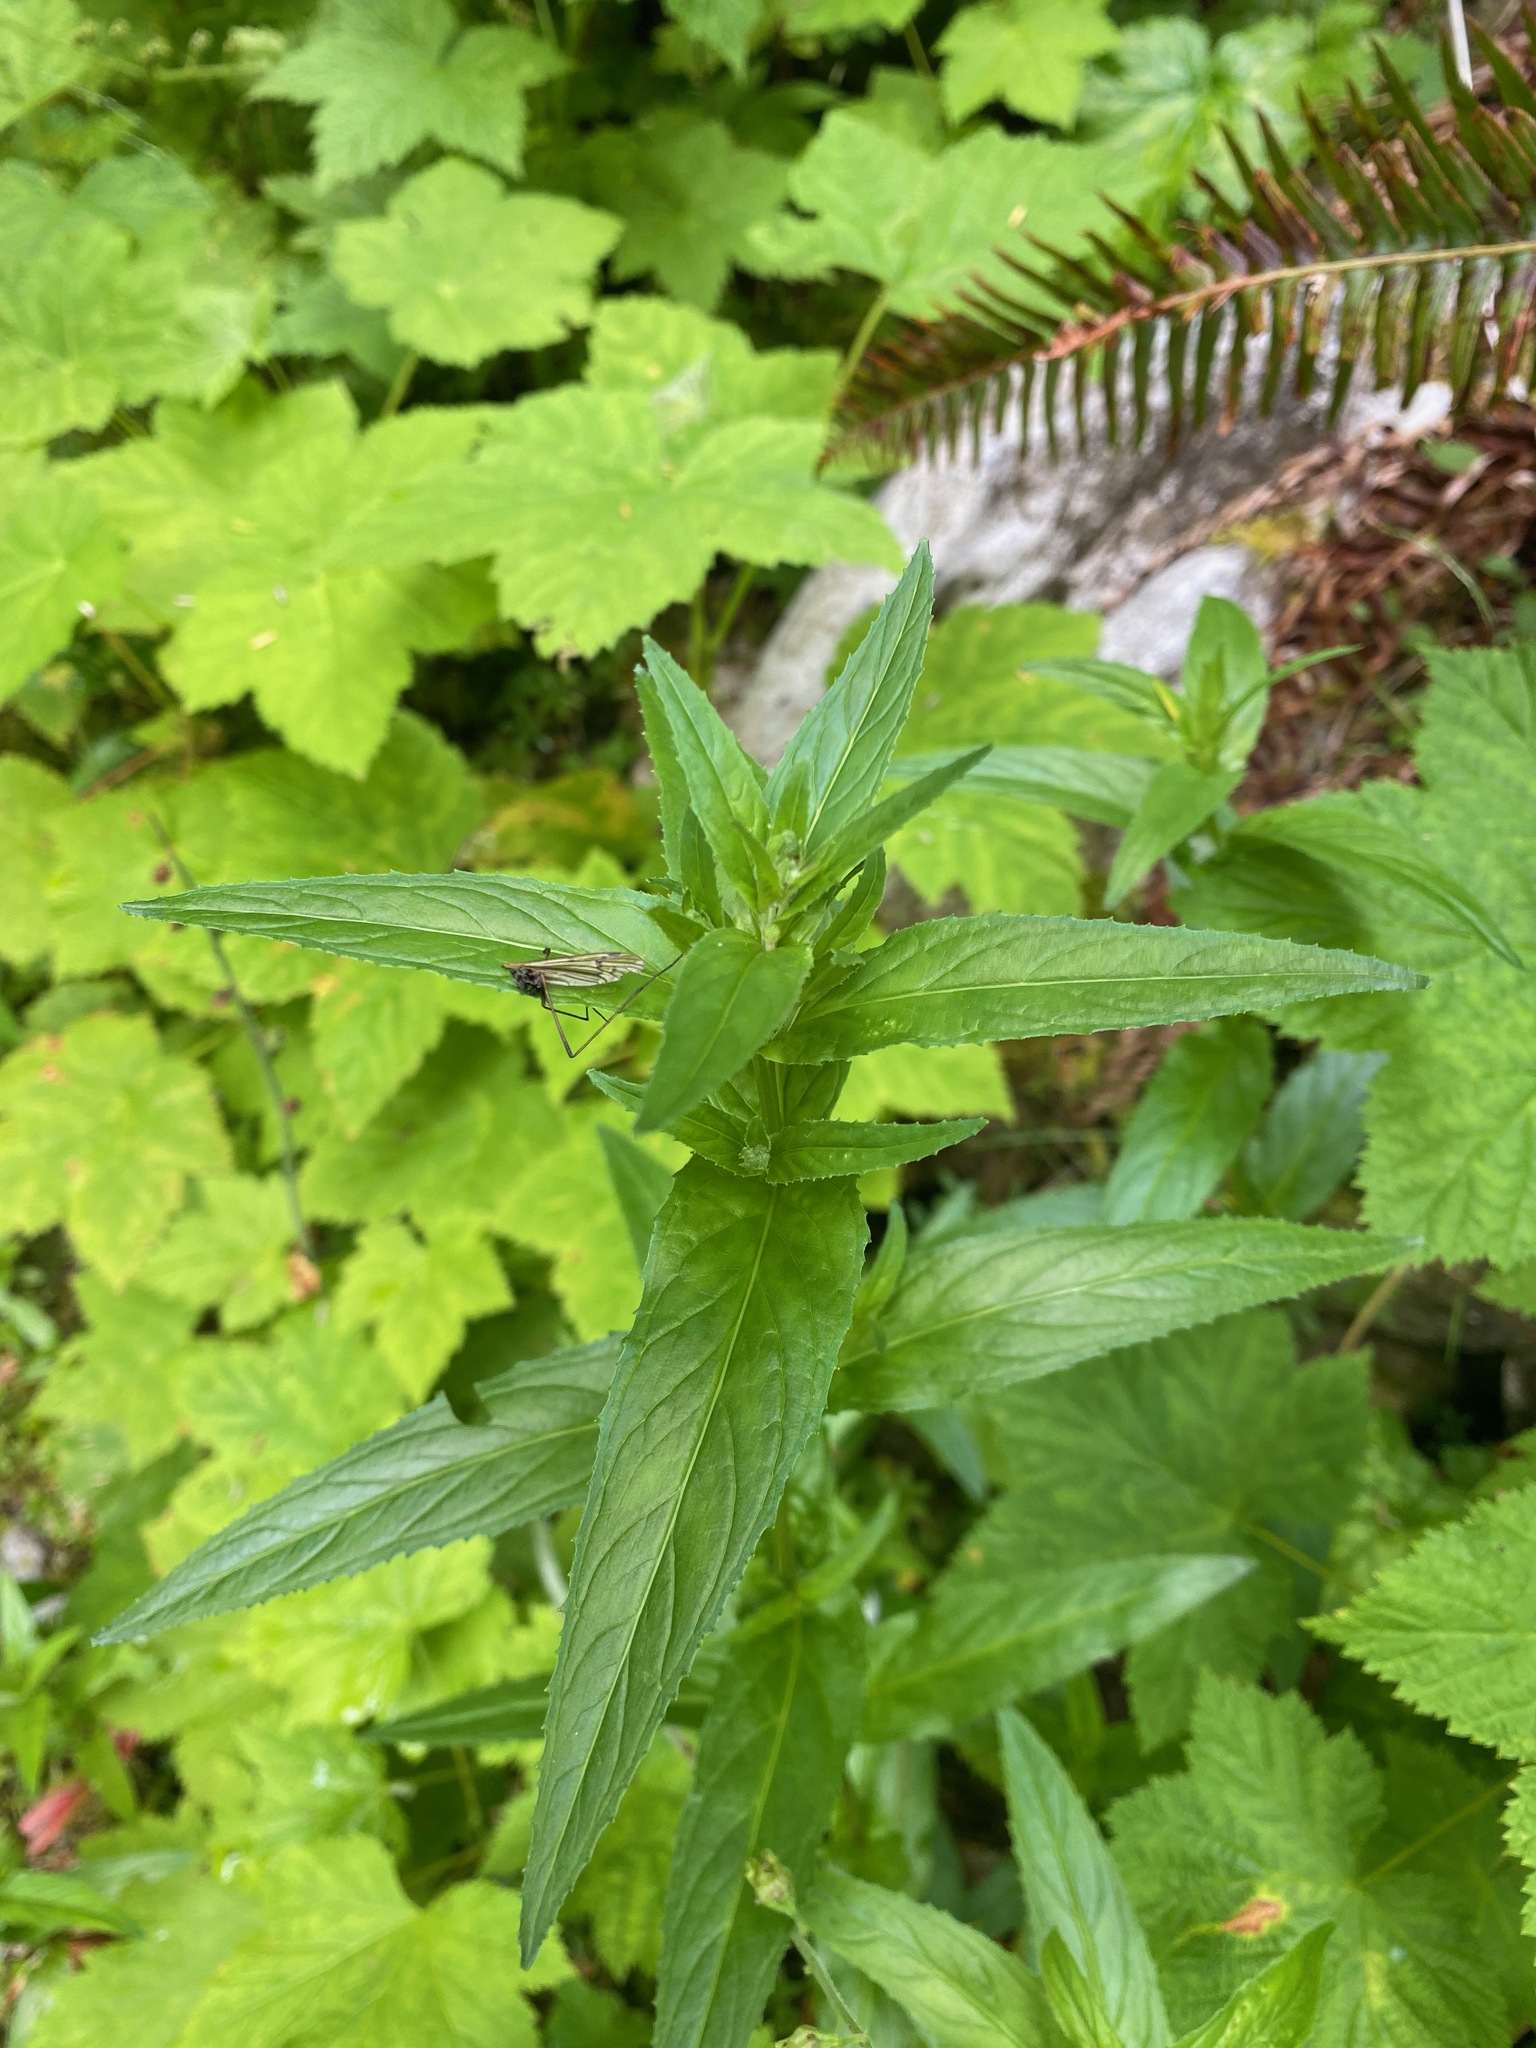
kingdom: Plantae
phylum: Tracheophyta
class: Magnoliopsida
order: Myrtales
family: Onagraceae
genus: Epilobium
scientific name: Epilobium ciliatum
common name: American willowherb
